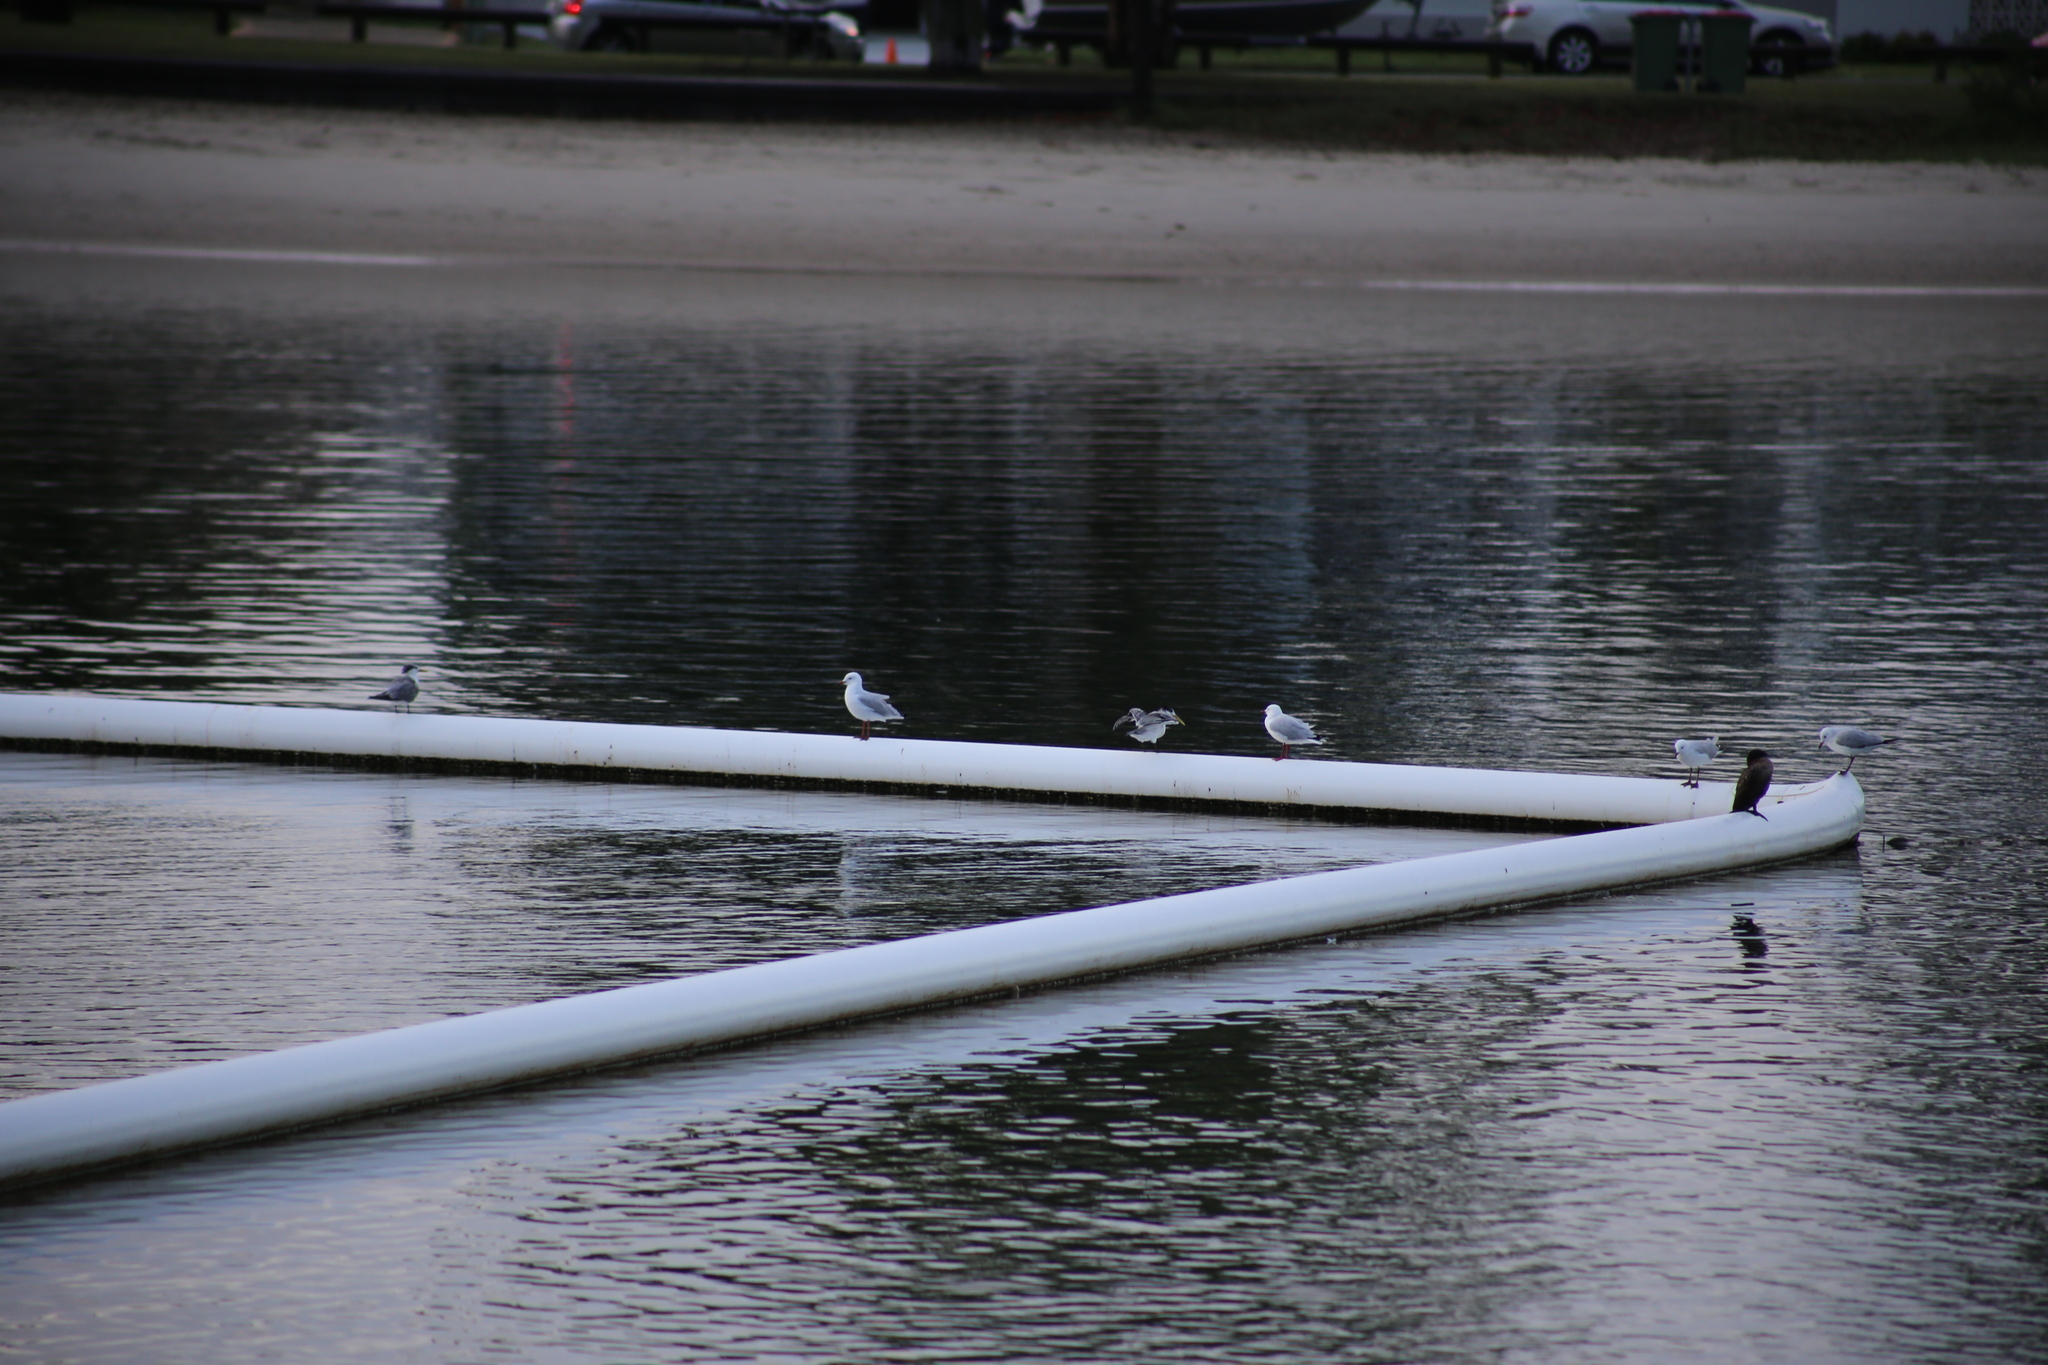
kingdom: Animalia
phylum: Chordata
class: Aves
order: Suliformes
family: Phalacrocoracidae
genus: Phalacrocorax
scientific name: Phalacrocorax sulcirostris
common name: Little black cormorant
